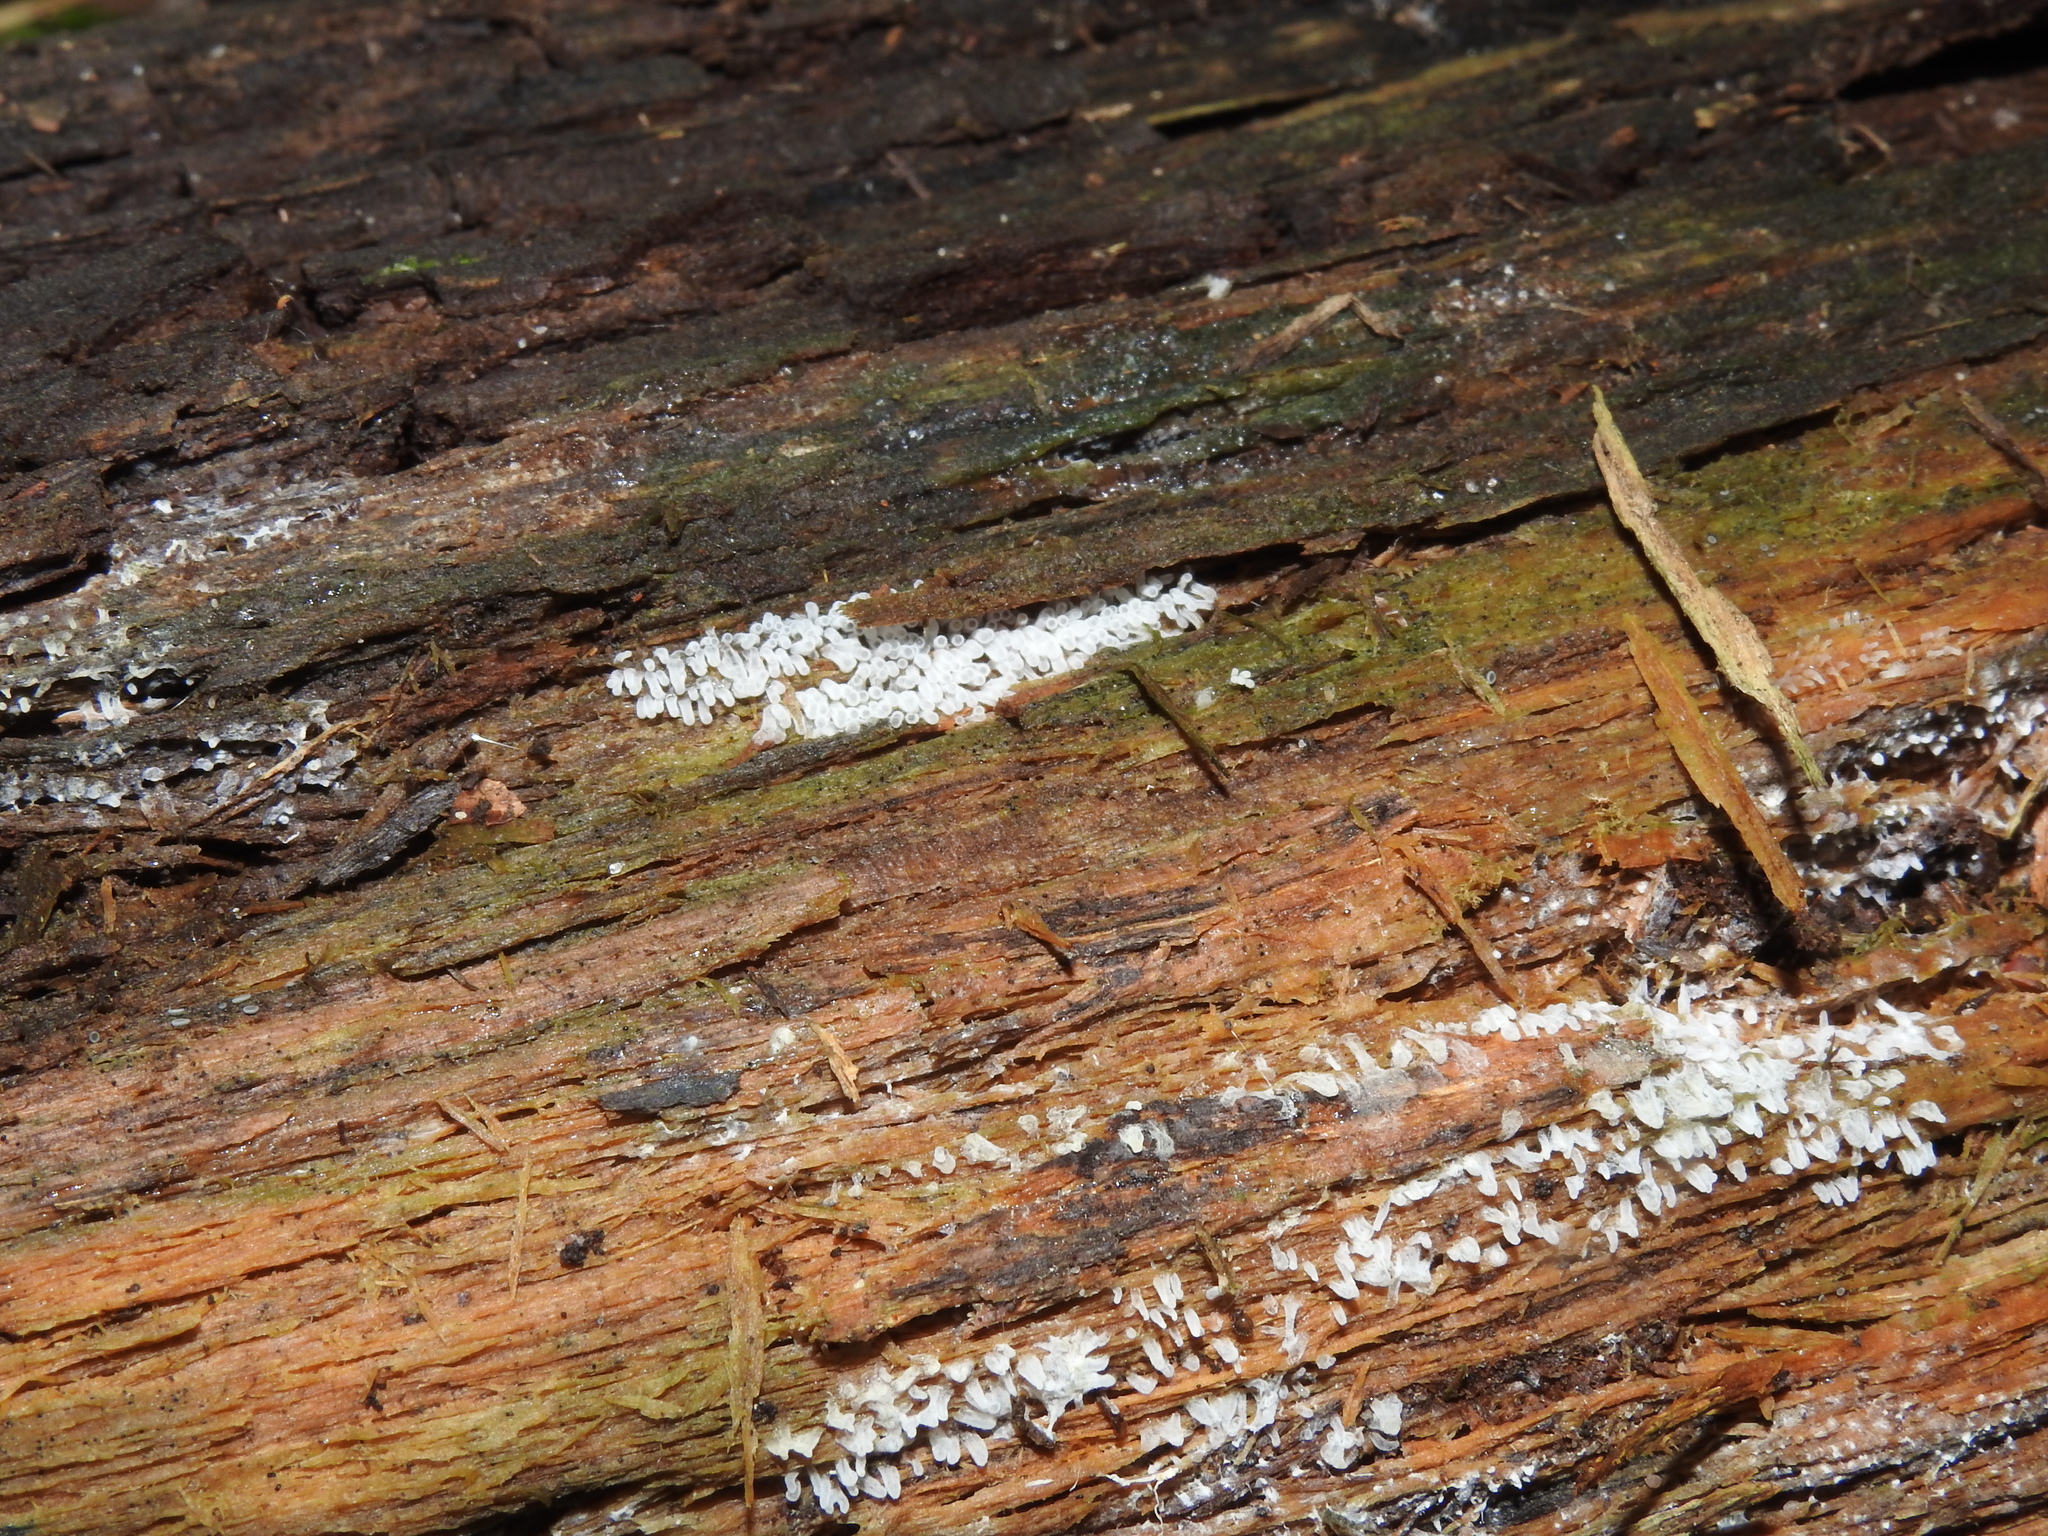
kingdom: Protozoa
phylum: Mycetozoa
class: Protosteliomycetes
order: Ceratiomyxales
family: Ceratiomyxaceae
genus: Ceratiomyxa
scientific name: Ceratiomyxa fruticulosa
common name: Honeycomb coral slime mold
